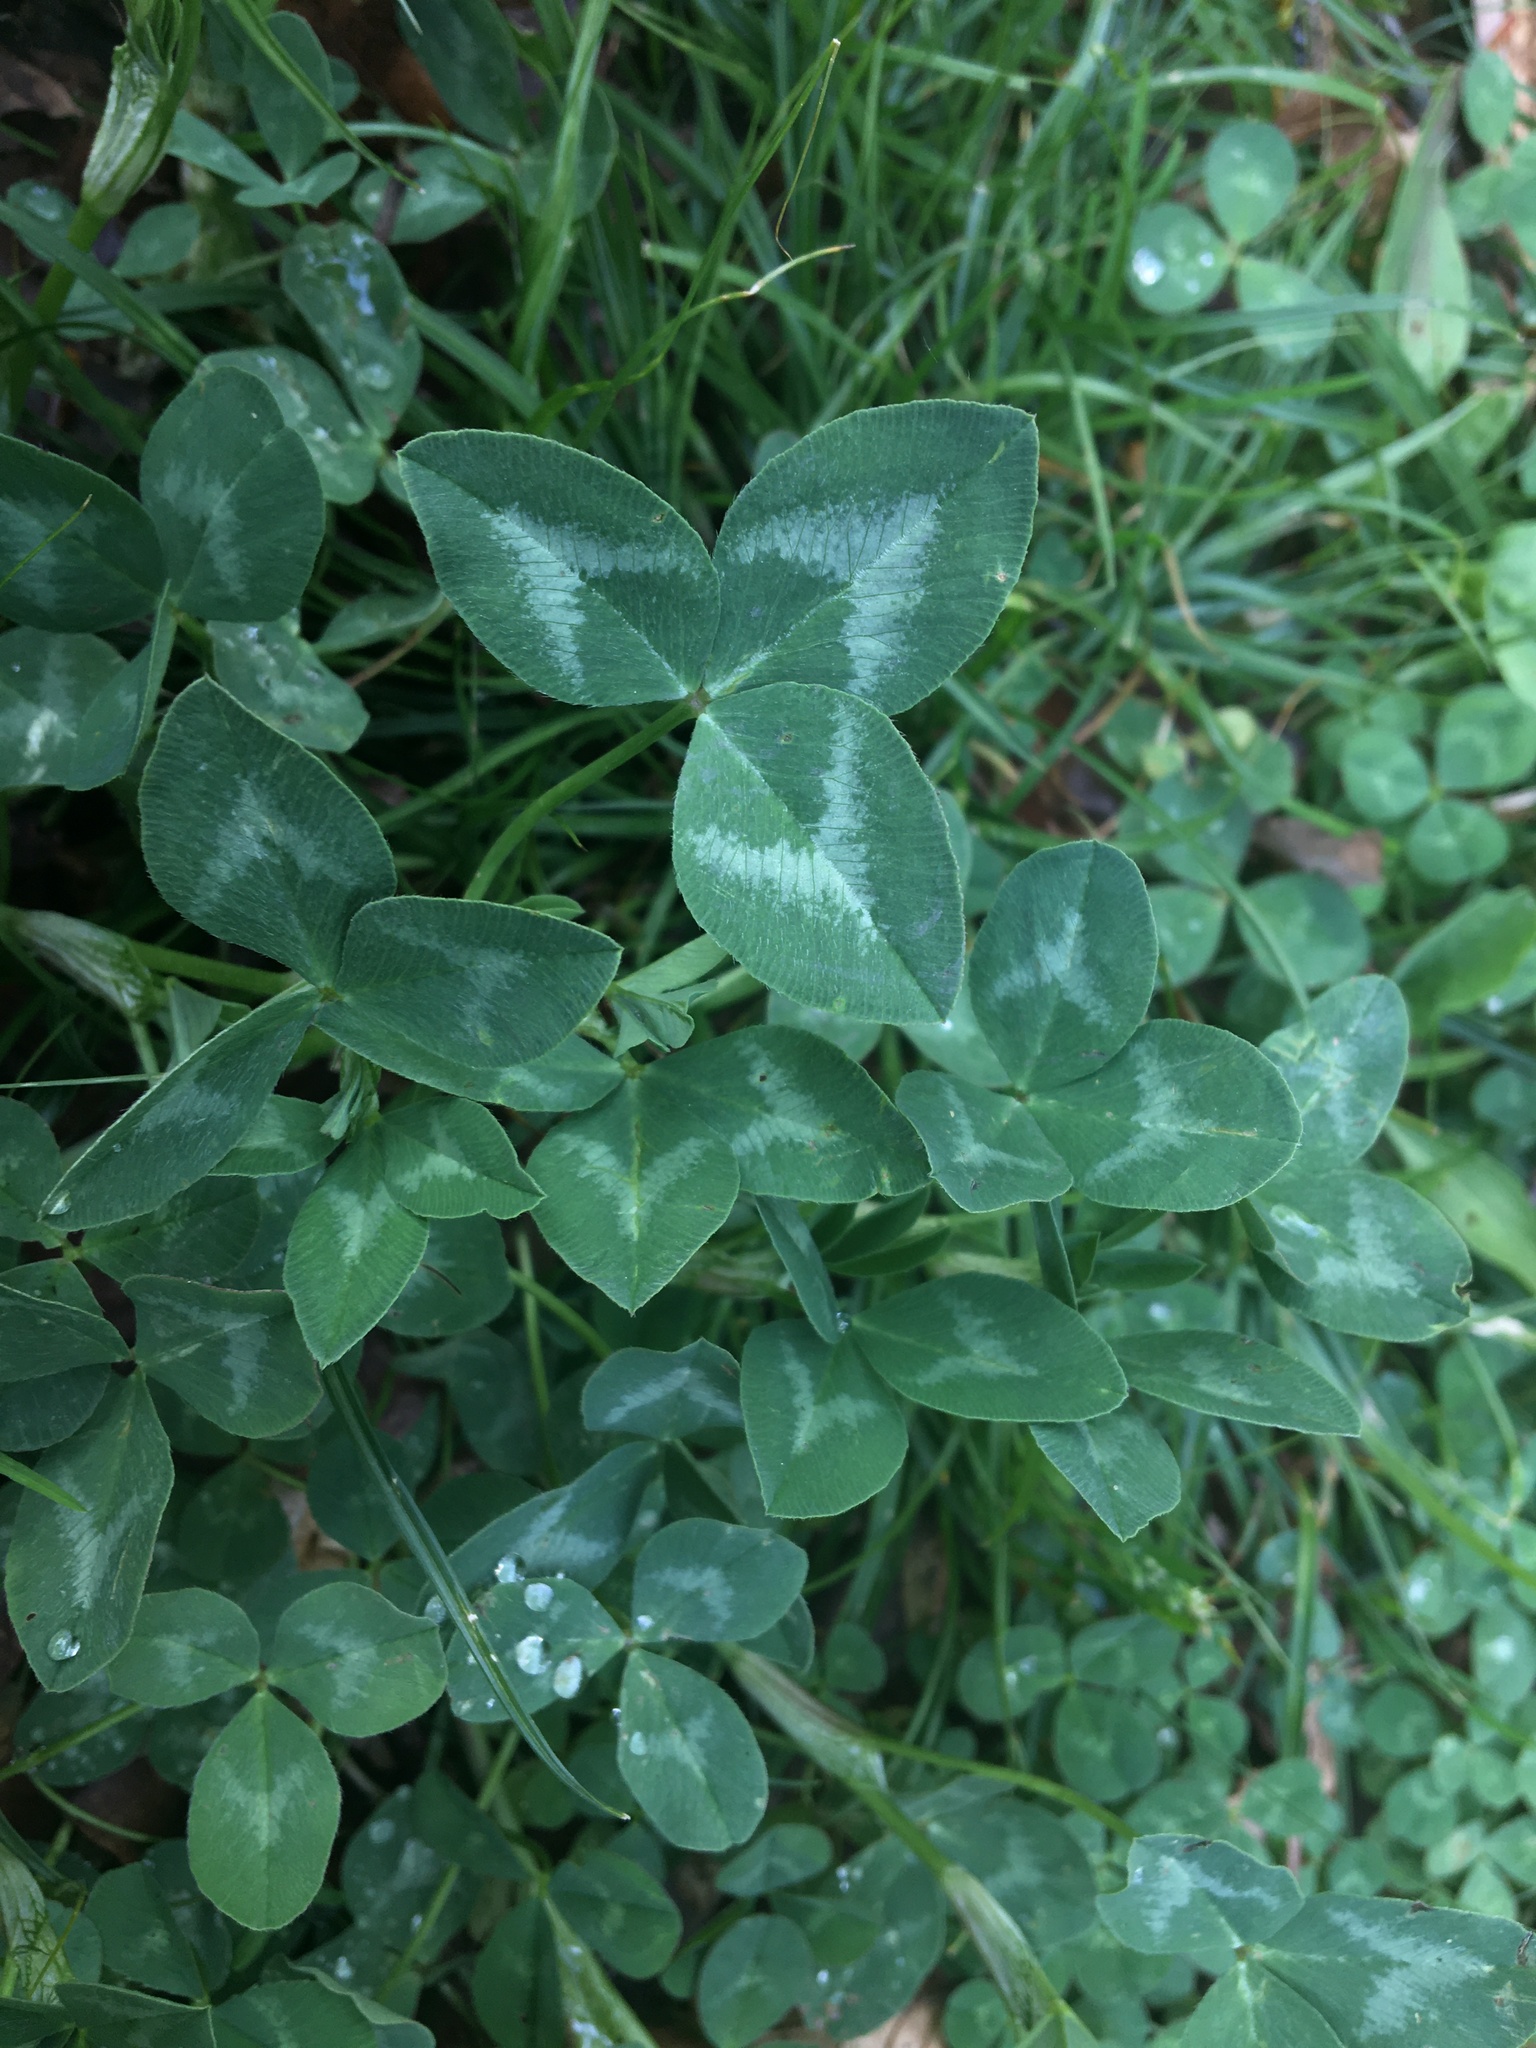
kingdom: Plantae
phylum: Tracheophyta
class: Magnoliopsida
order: Fabales
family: Fabaceae
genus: Trifolium
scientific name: Trifolium pratense
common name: Red clover
